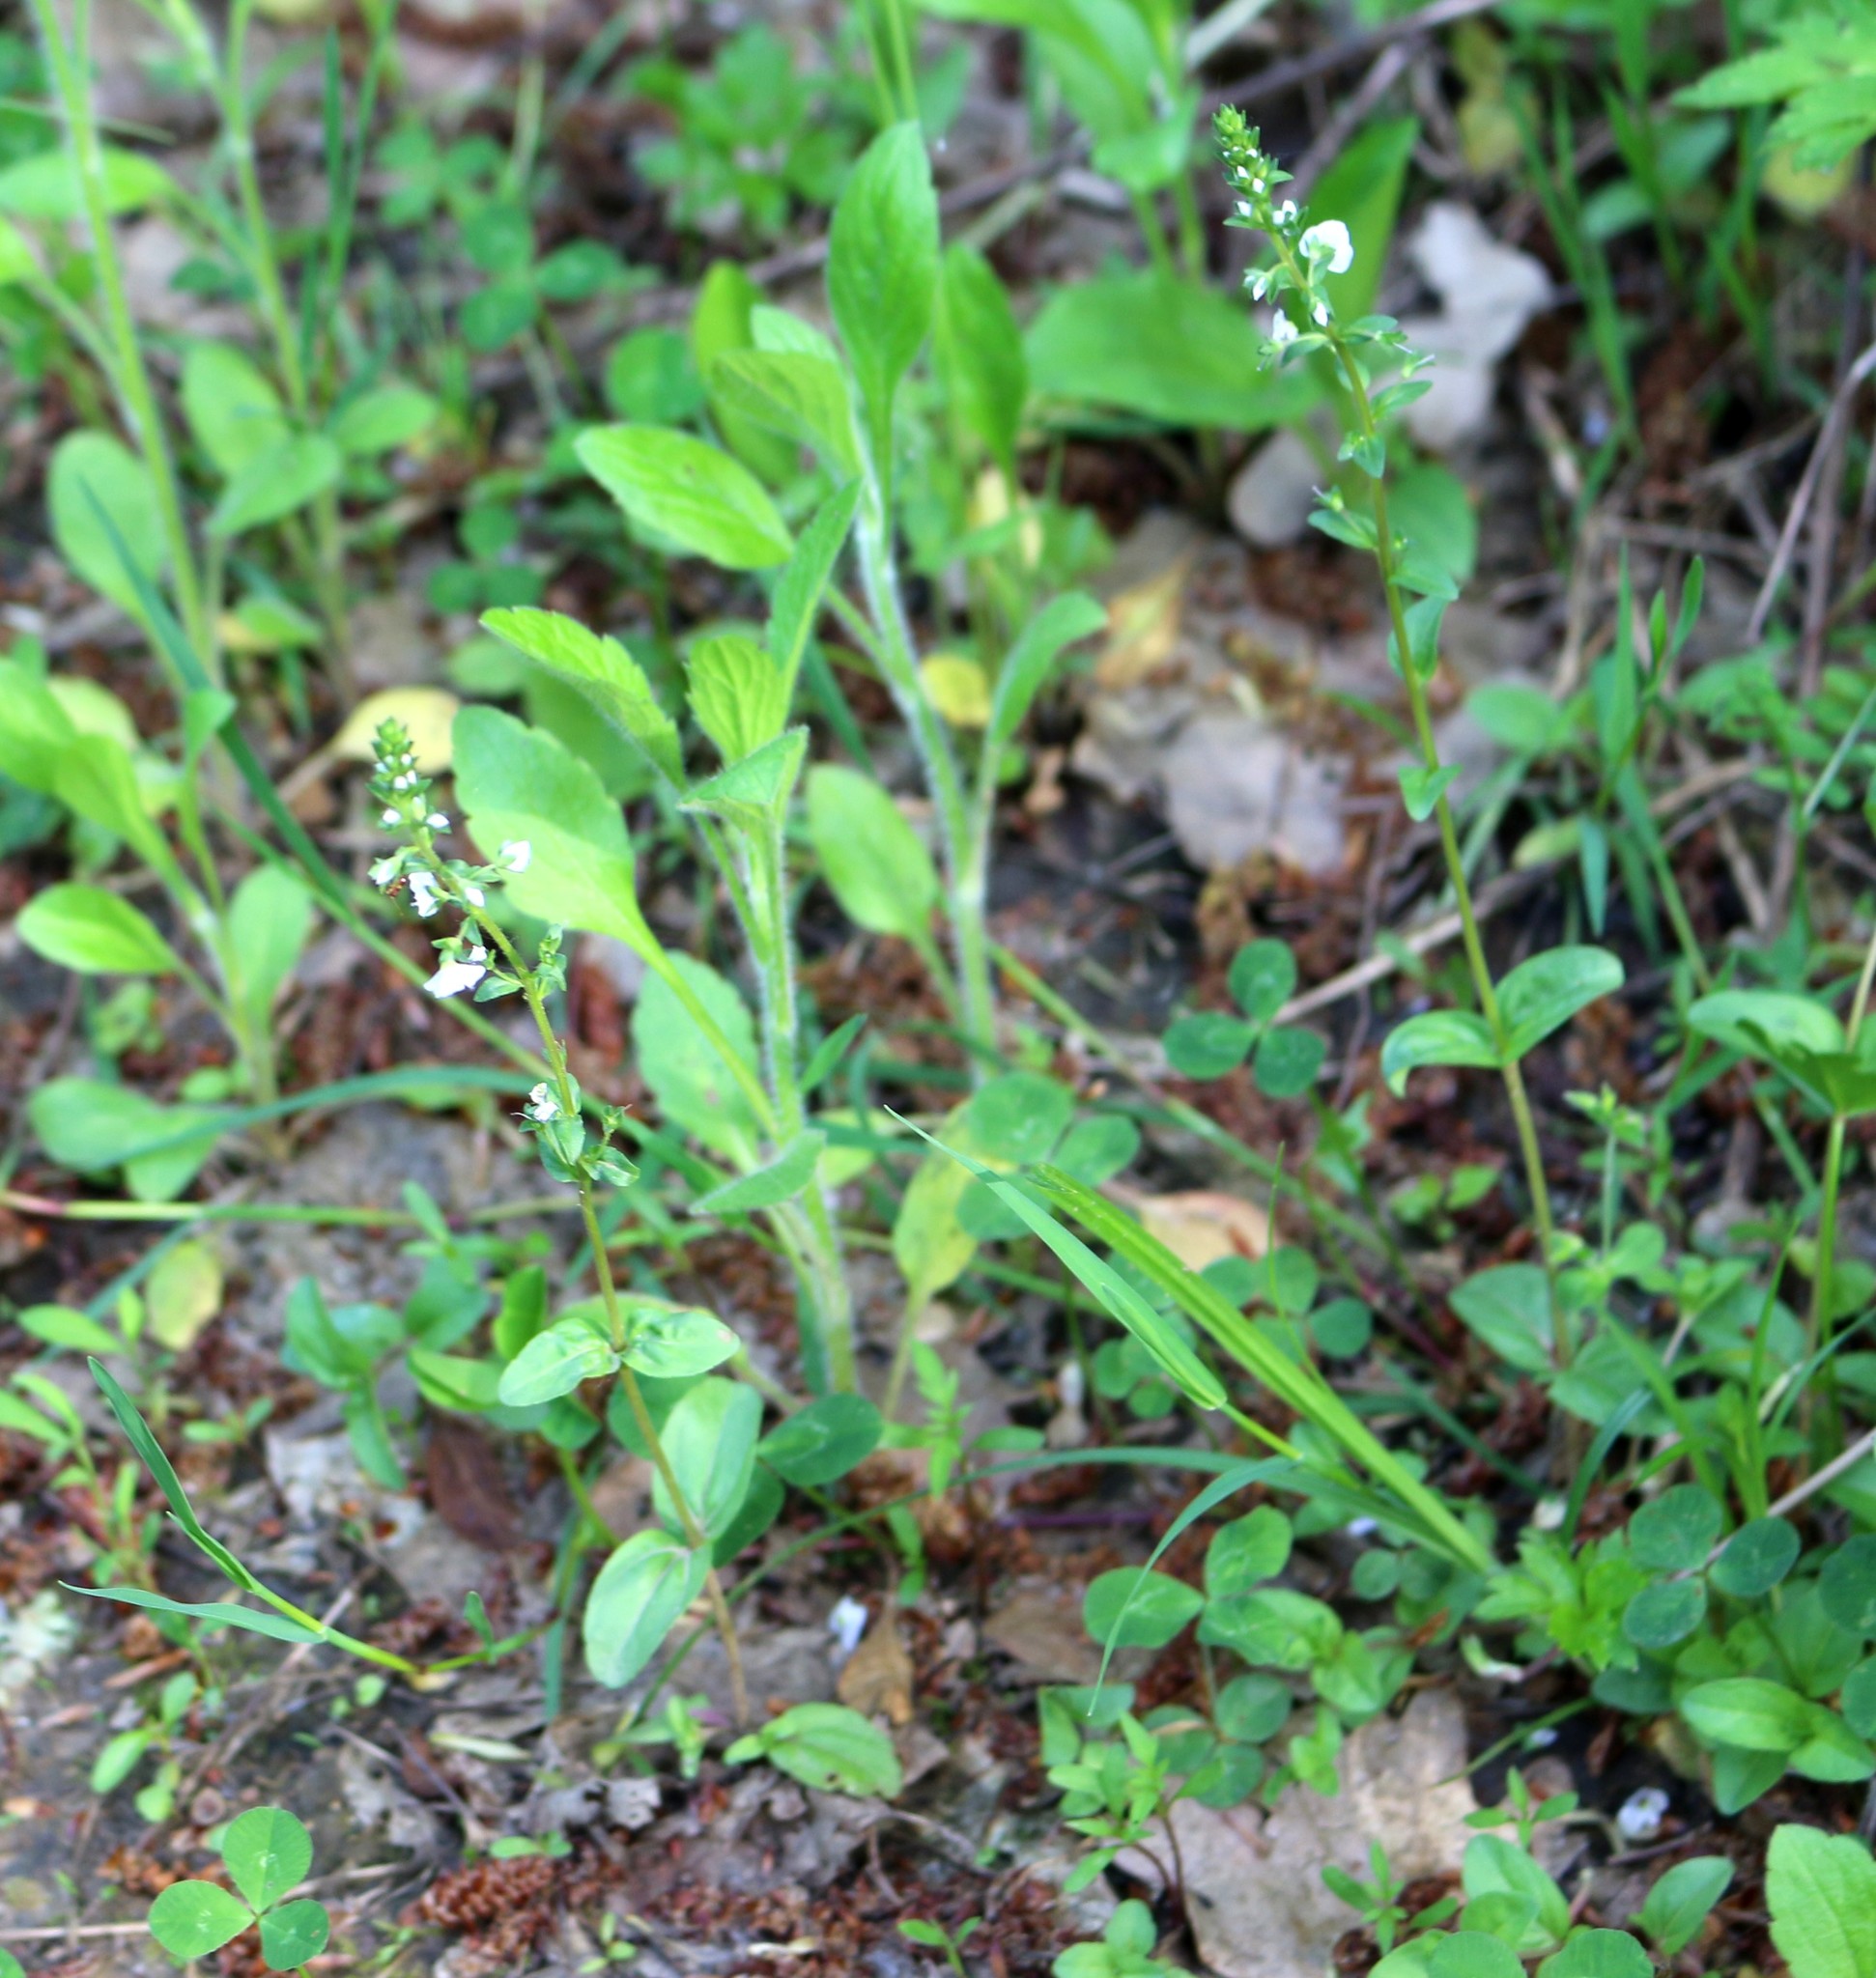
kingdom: Plantae
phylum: Tracheophyta
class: Magnoliopsida
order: Lamiales
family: Plantaginaceae
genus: Veronica
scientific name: Veronica serpyllifolia
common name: Thyme-leaved speedwell
